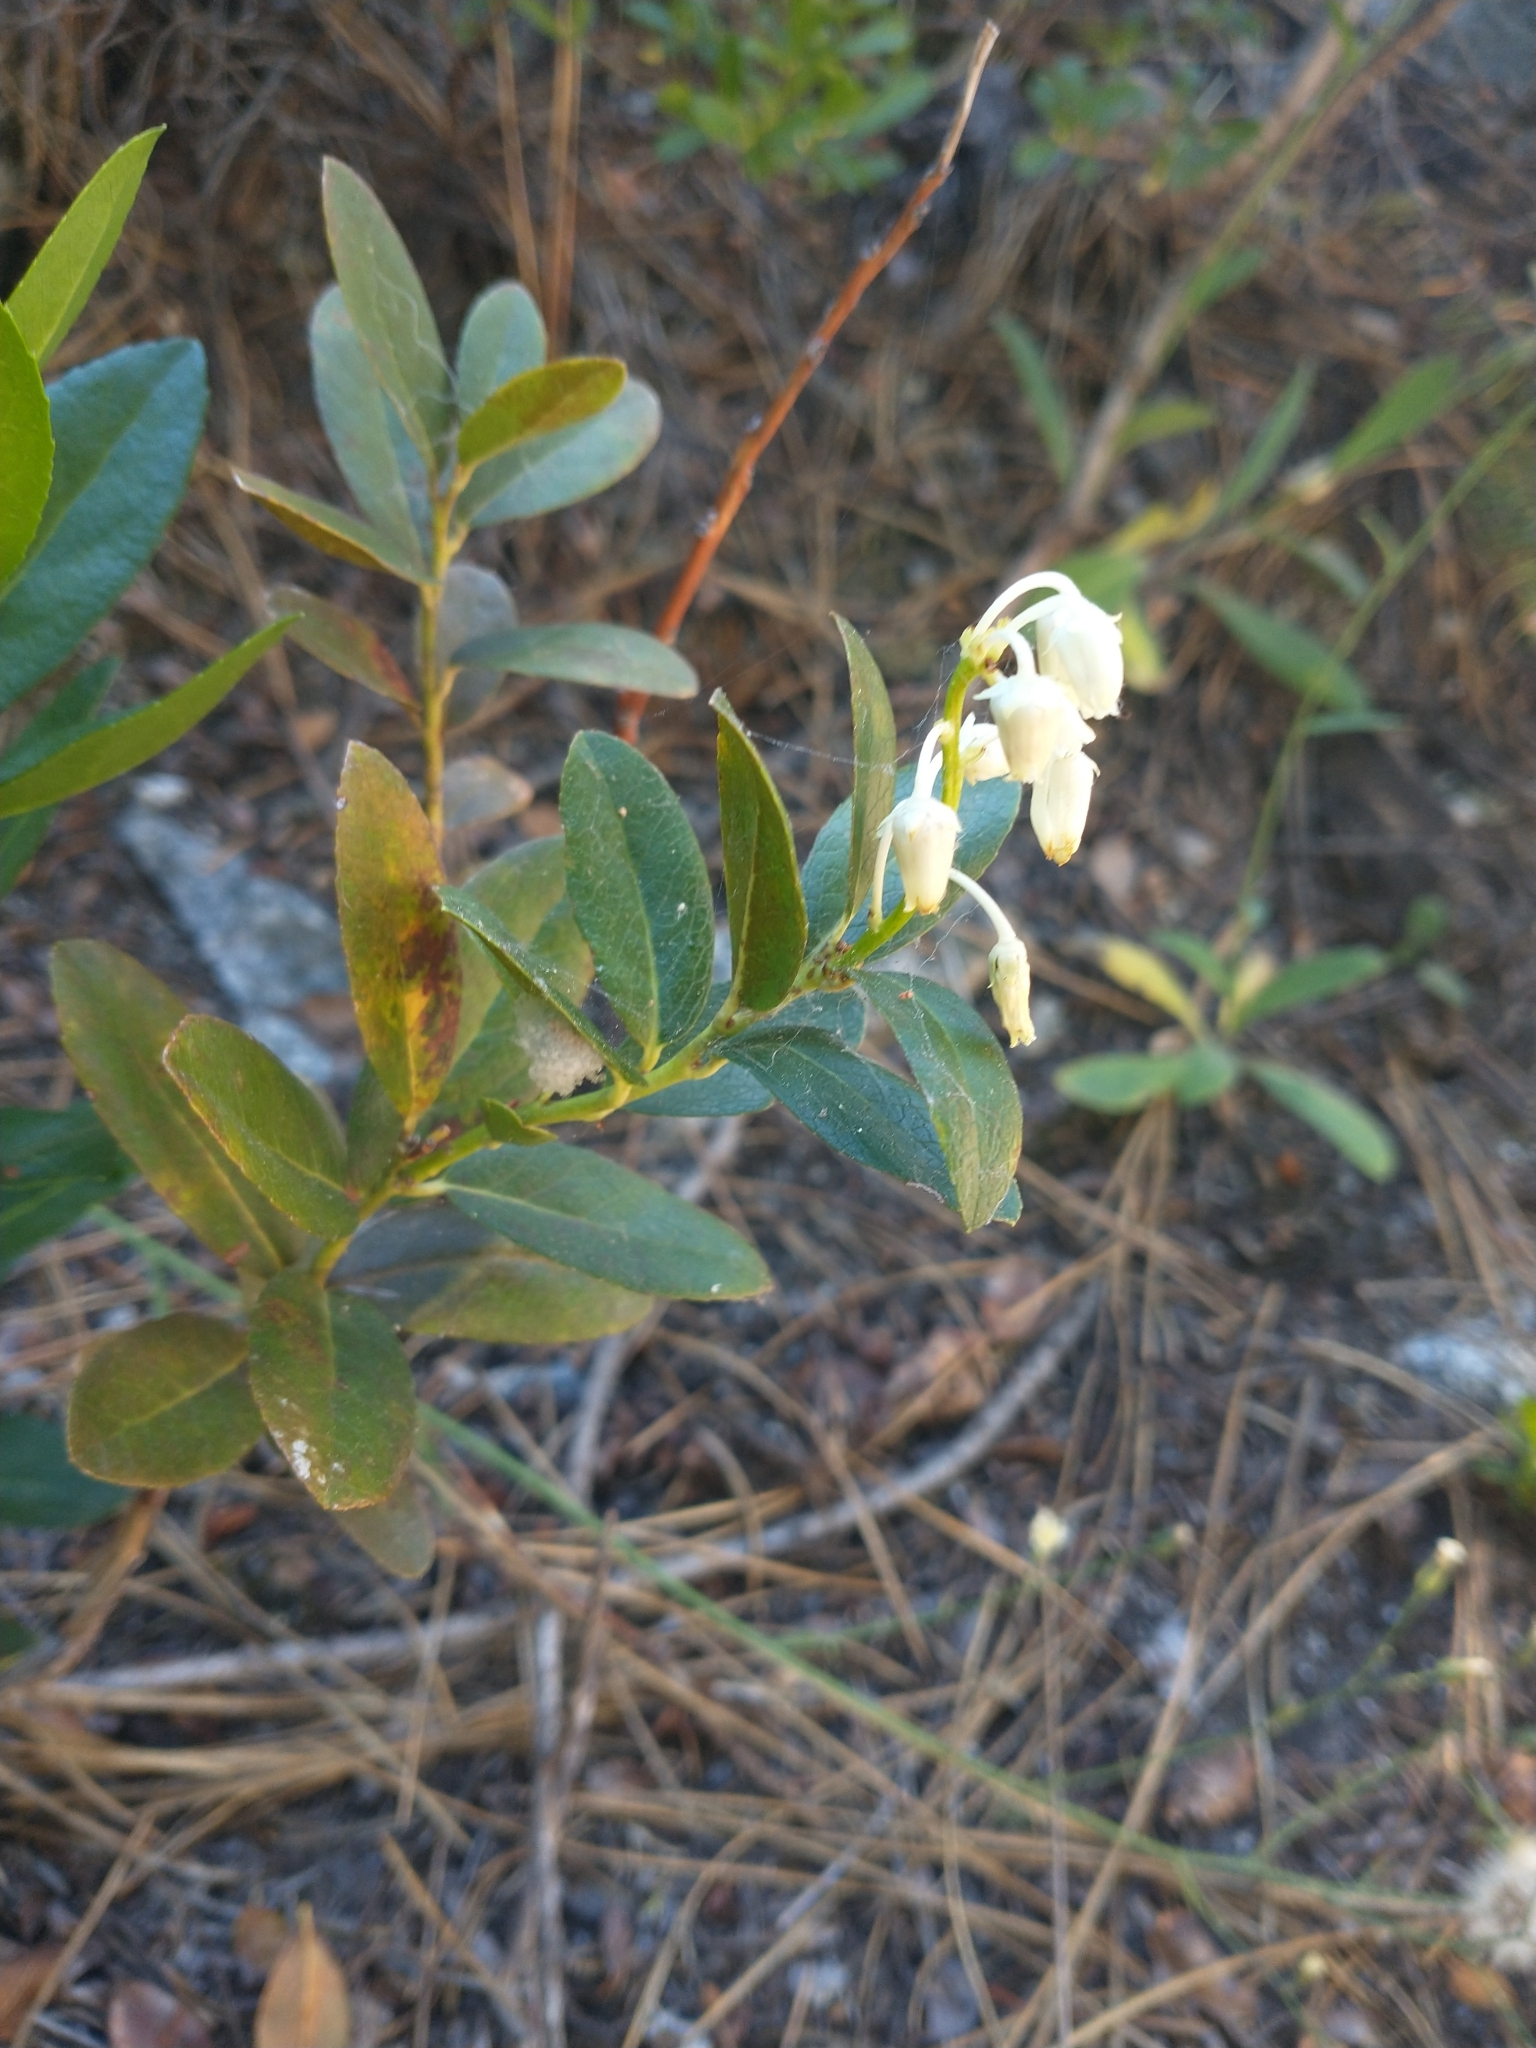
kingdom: Plantae
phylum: Tracheophyta
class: Magnoliopsida
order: Ericales
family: Ericaceae
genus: Leucothoe
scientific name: Leucothoe davisiae
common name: Sierra-laurel
